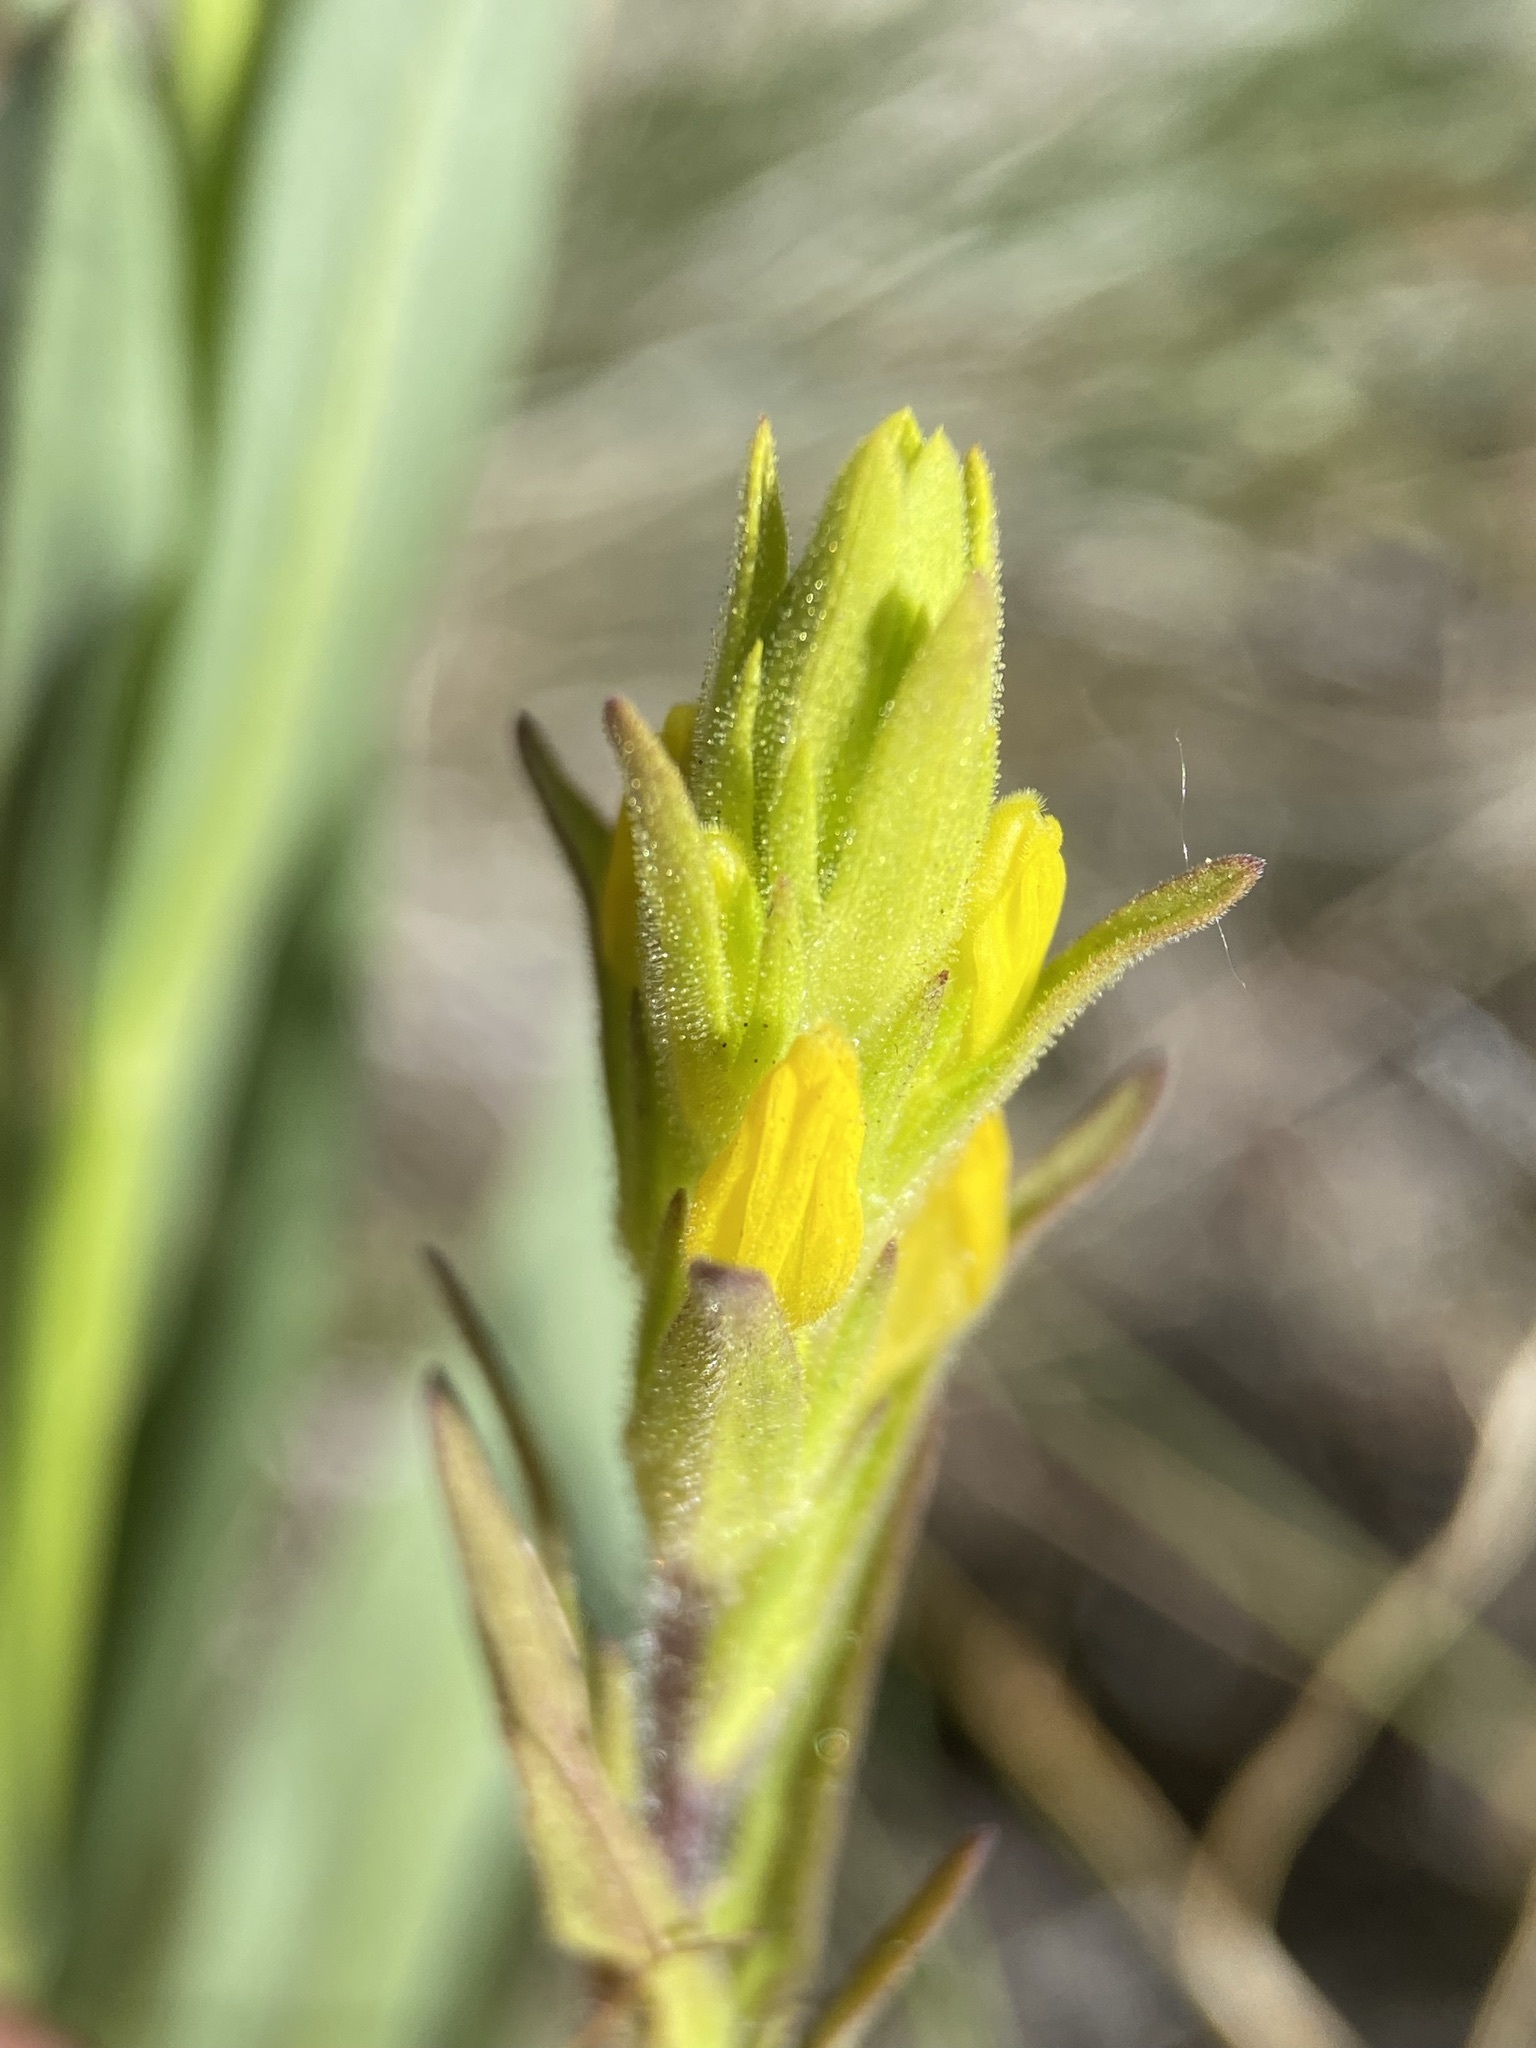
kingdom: Plantae
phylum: Tracheophyta
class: Magnoliopsida
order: Lamiales
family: Orobanchaceae
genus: Orthocarpus
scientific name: Orthocarpus luteus
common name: Golden-tongue owl's-clover
